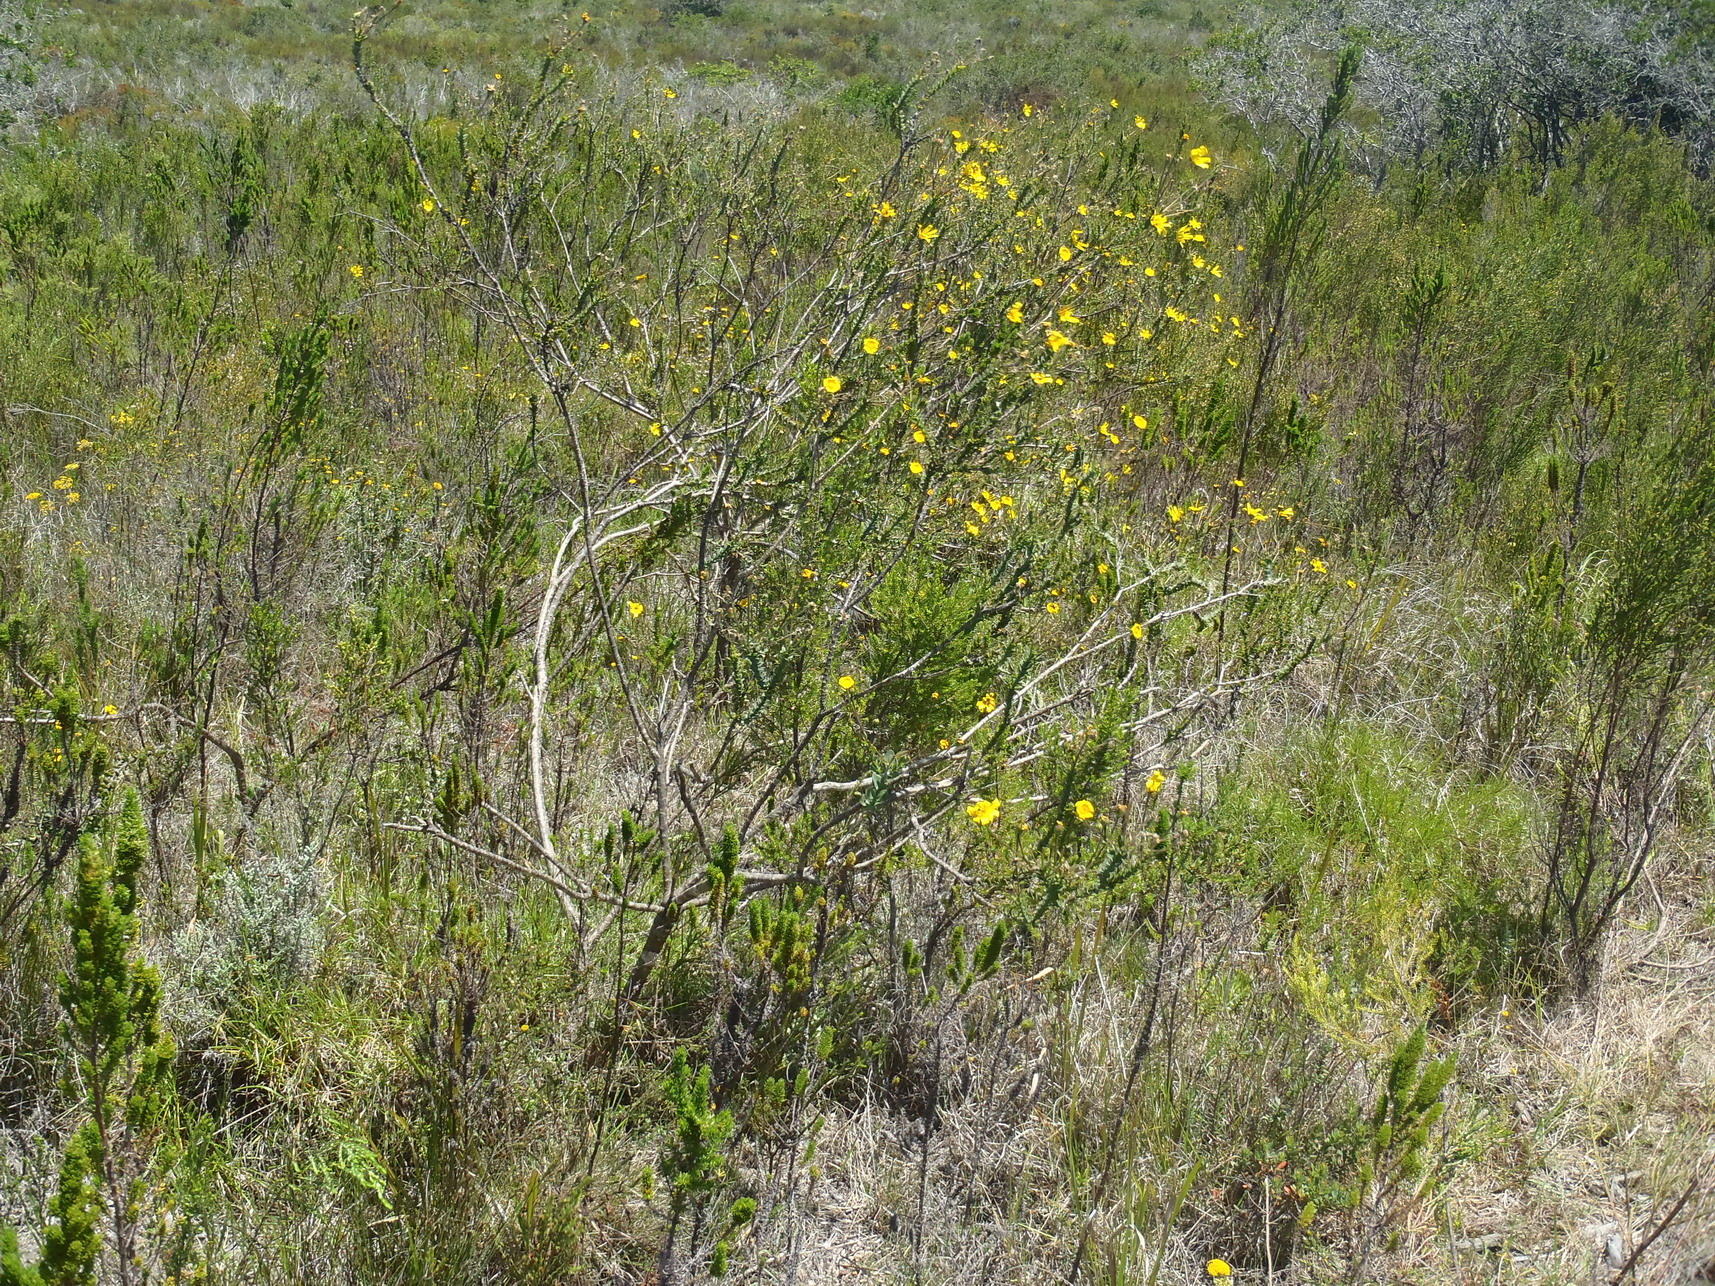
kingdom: Plantae
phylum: Tracheophyta
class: Magnoliopsida
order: Asterales
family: Asteraceae
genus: Osteospermum
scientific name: Osteospermum polygaloides
